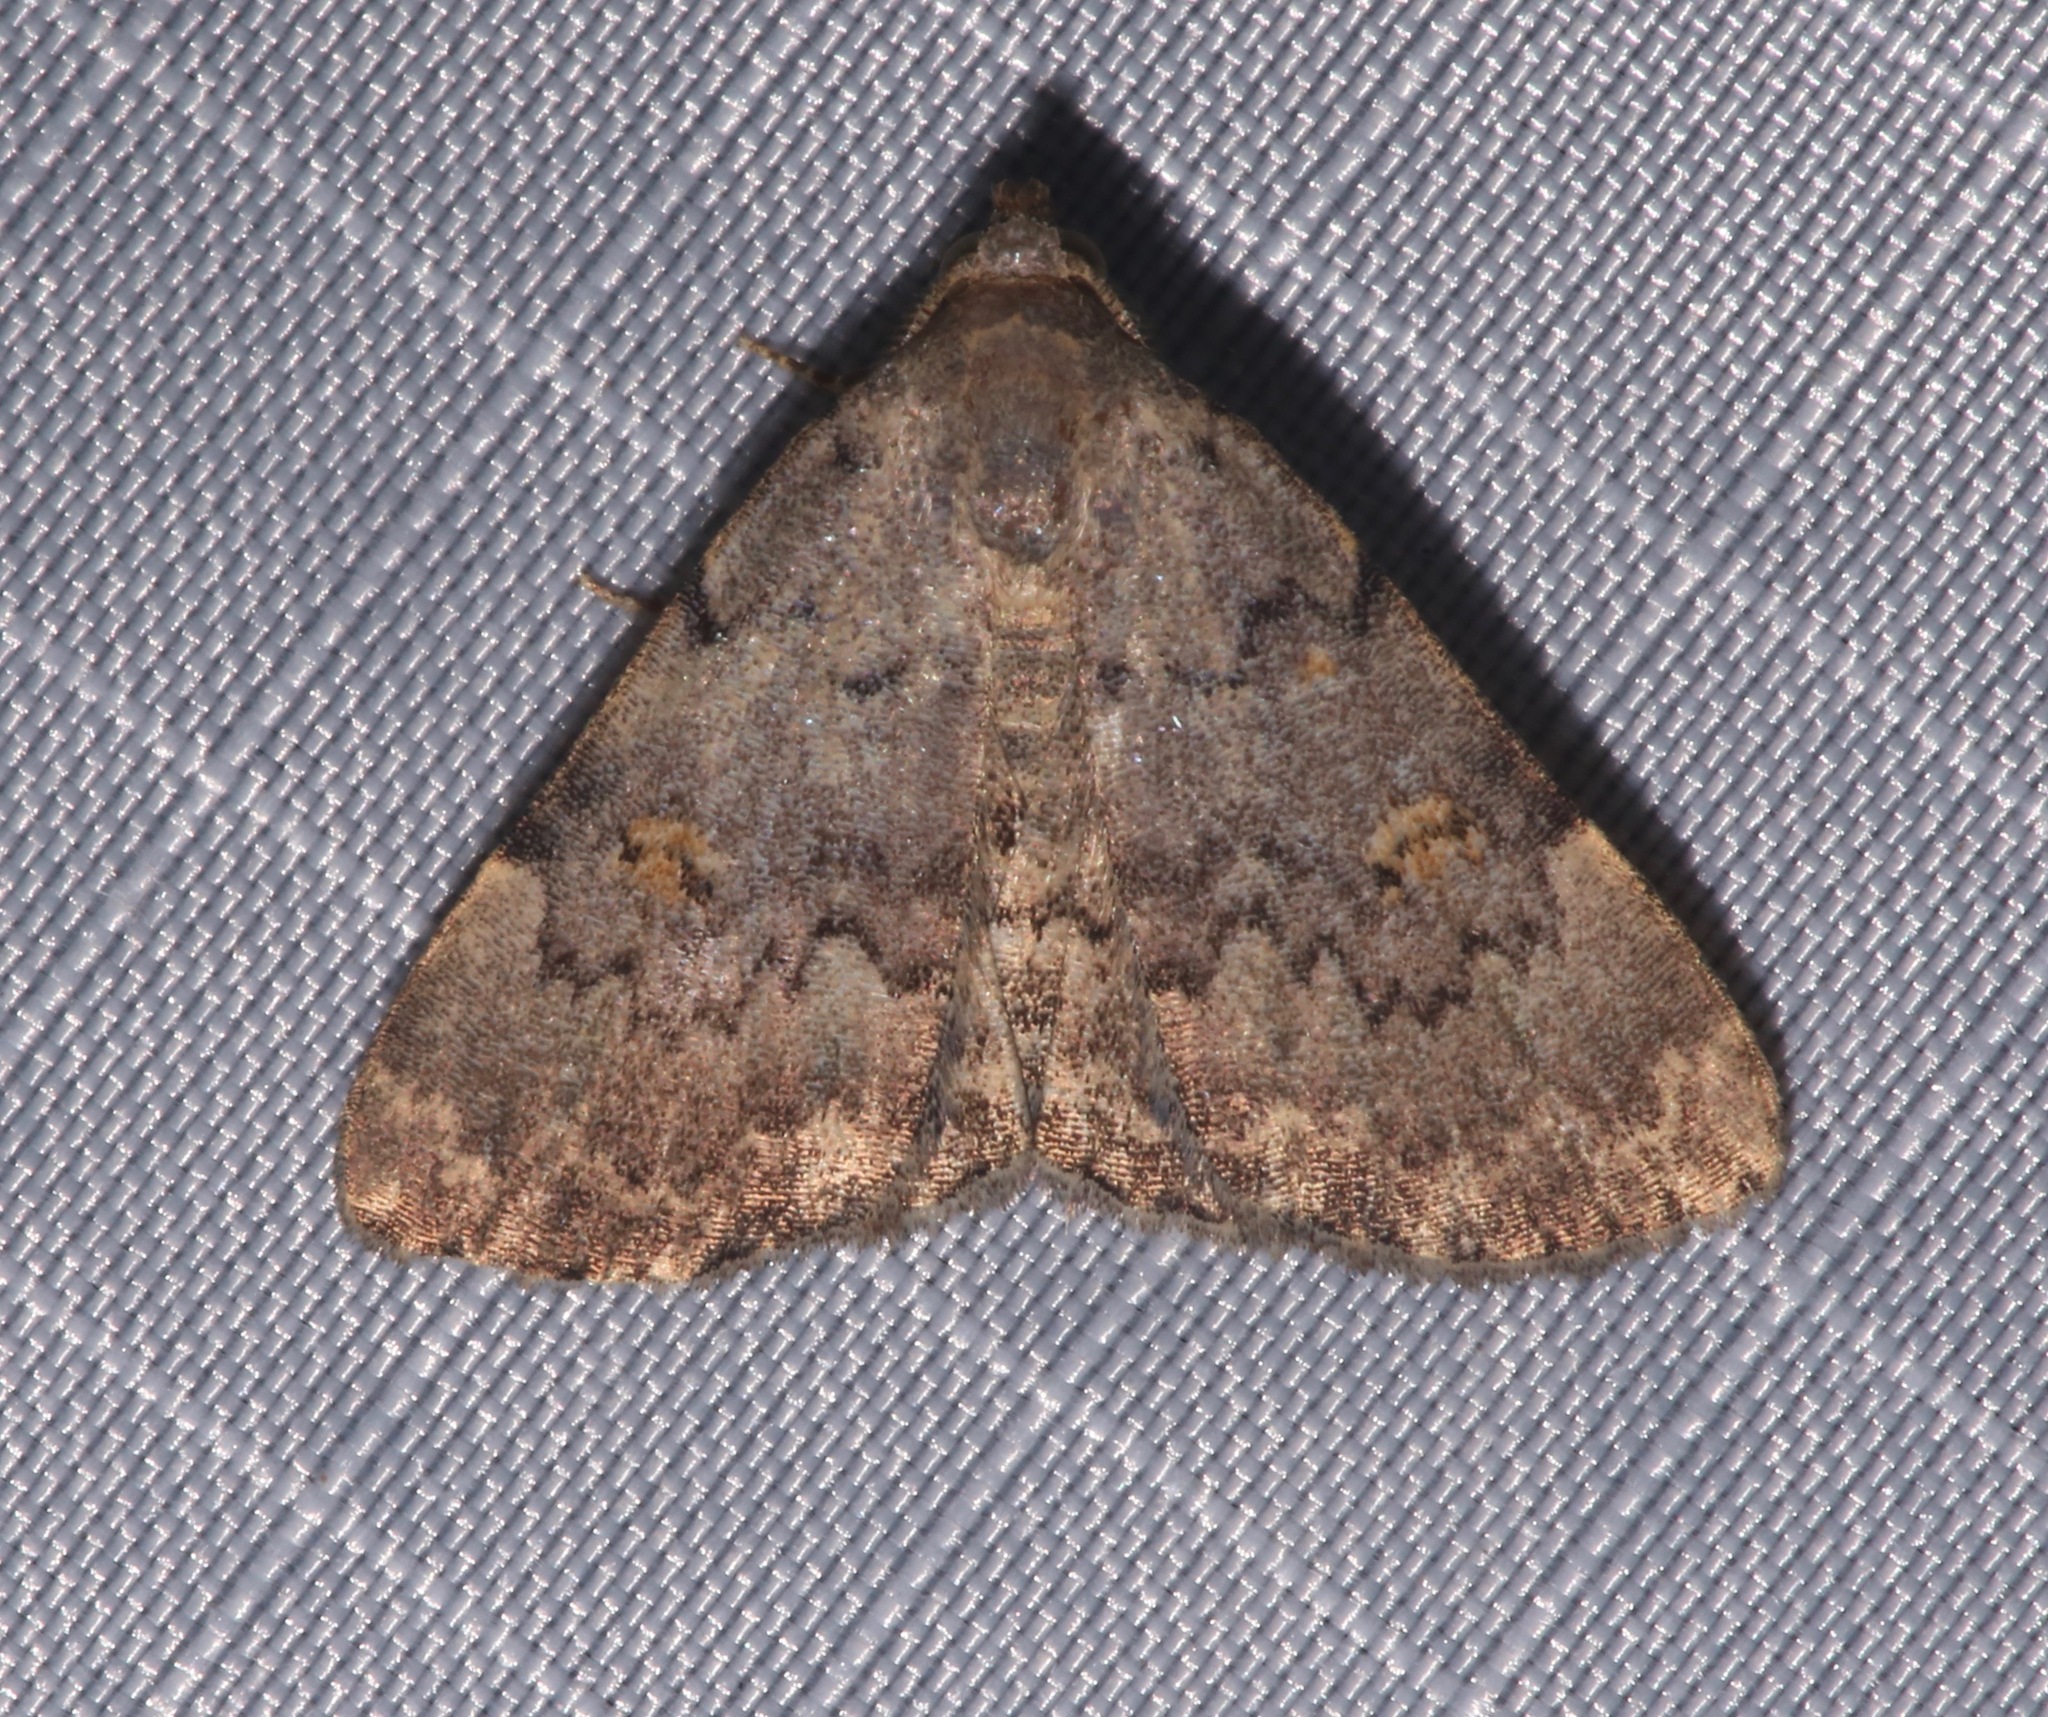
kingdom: Animalia
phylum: Arthropoda
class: Insecta
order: Lepidoptera
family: Erebidae
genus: Idia
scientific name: Idia aemula
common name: Common idia moth
